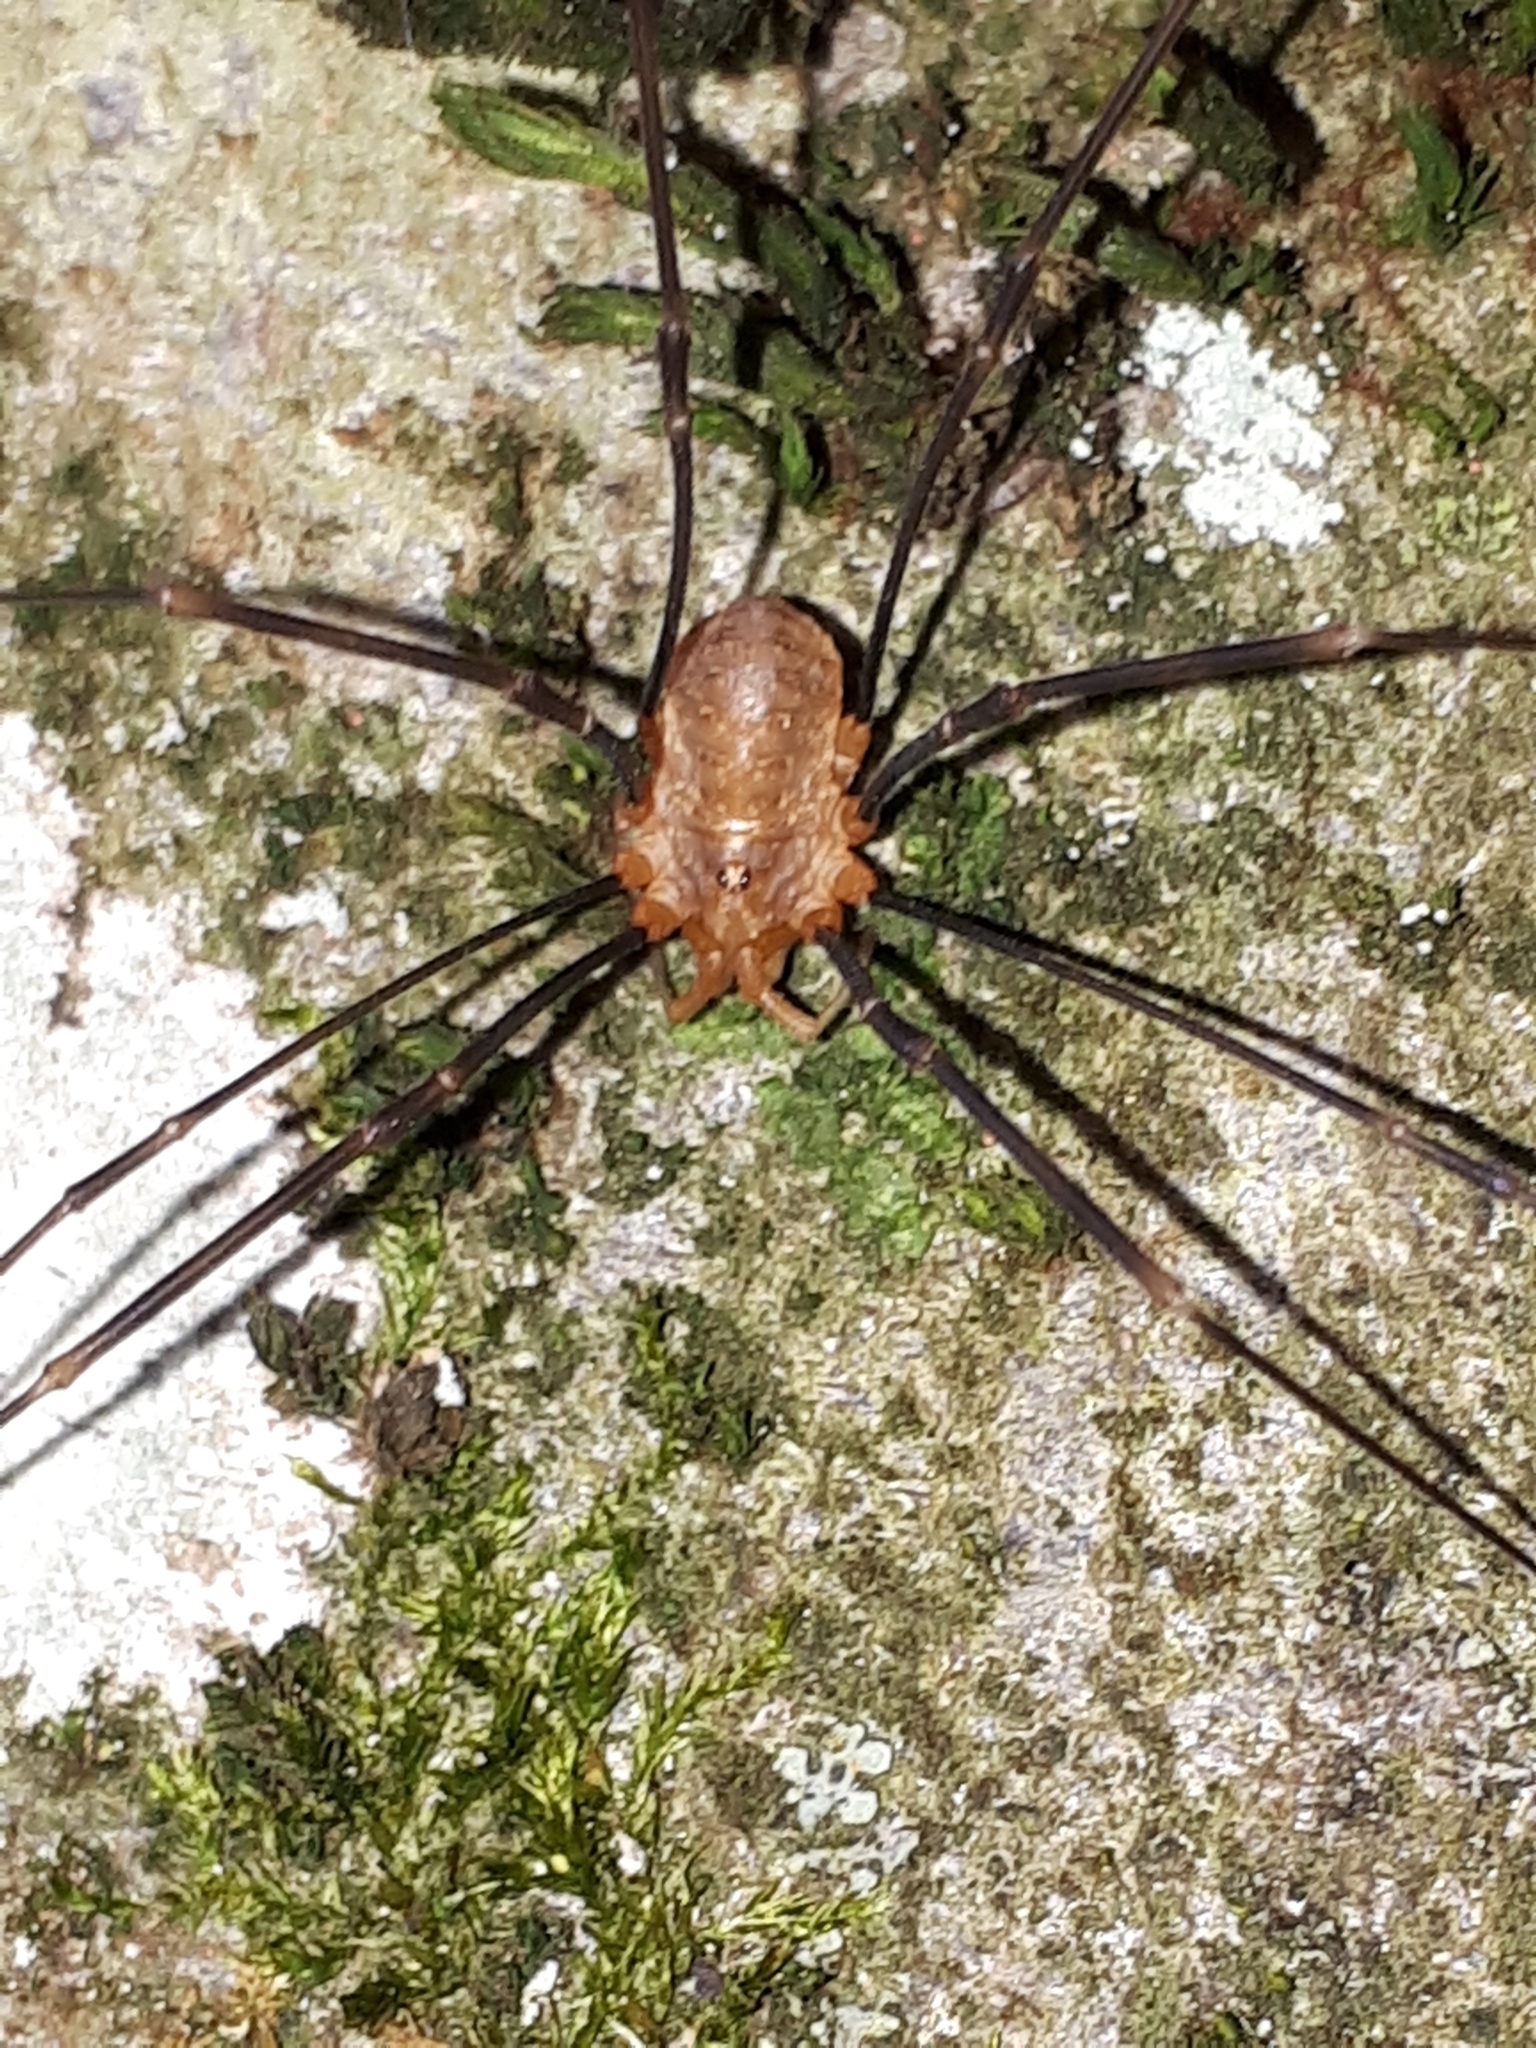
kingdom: Animalia
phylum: Arthropoda
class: Arachnida
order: Opiliones
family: Phalangiidae
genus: Opilio
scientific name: Opilio canestrinii
